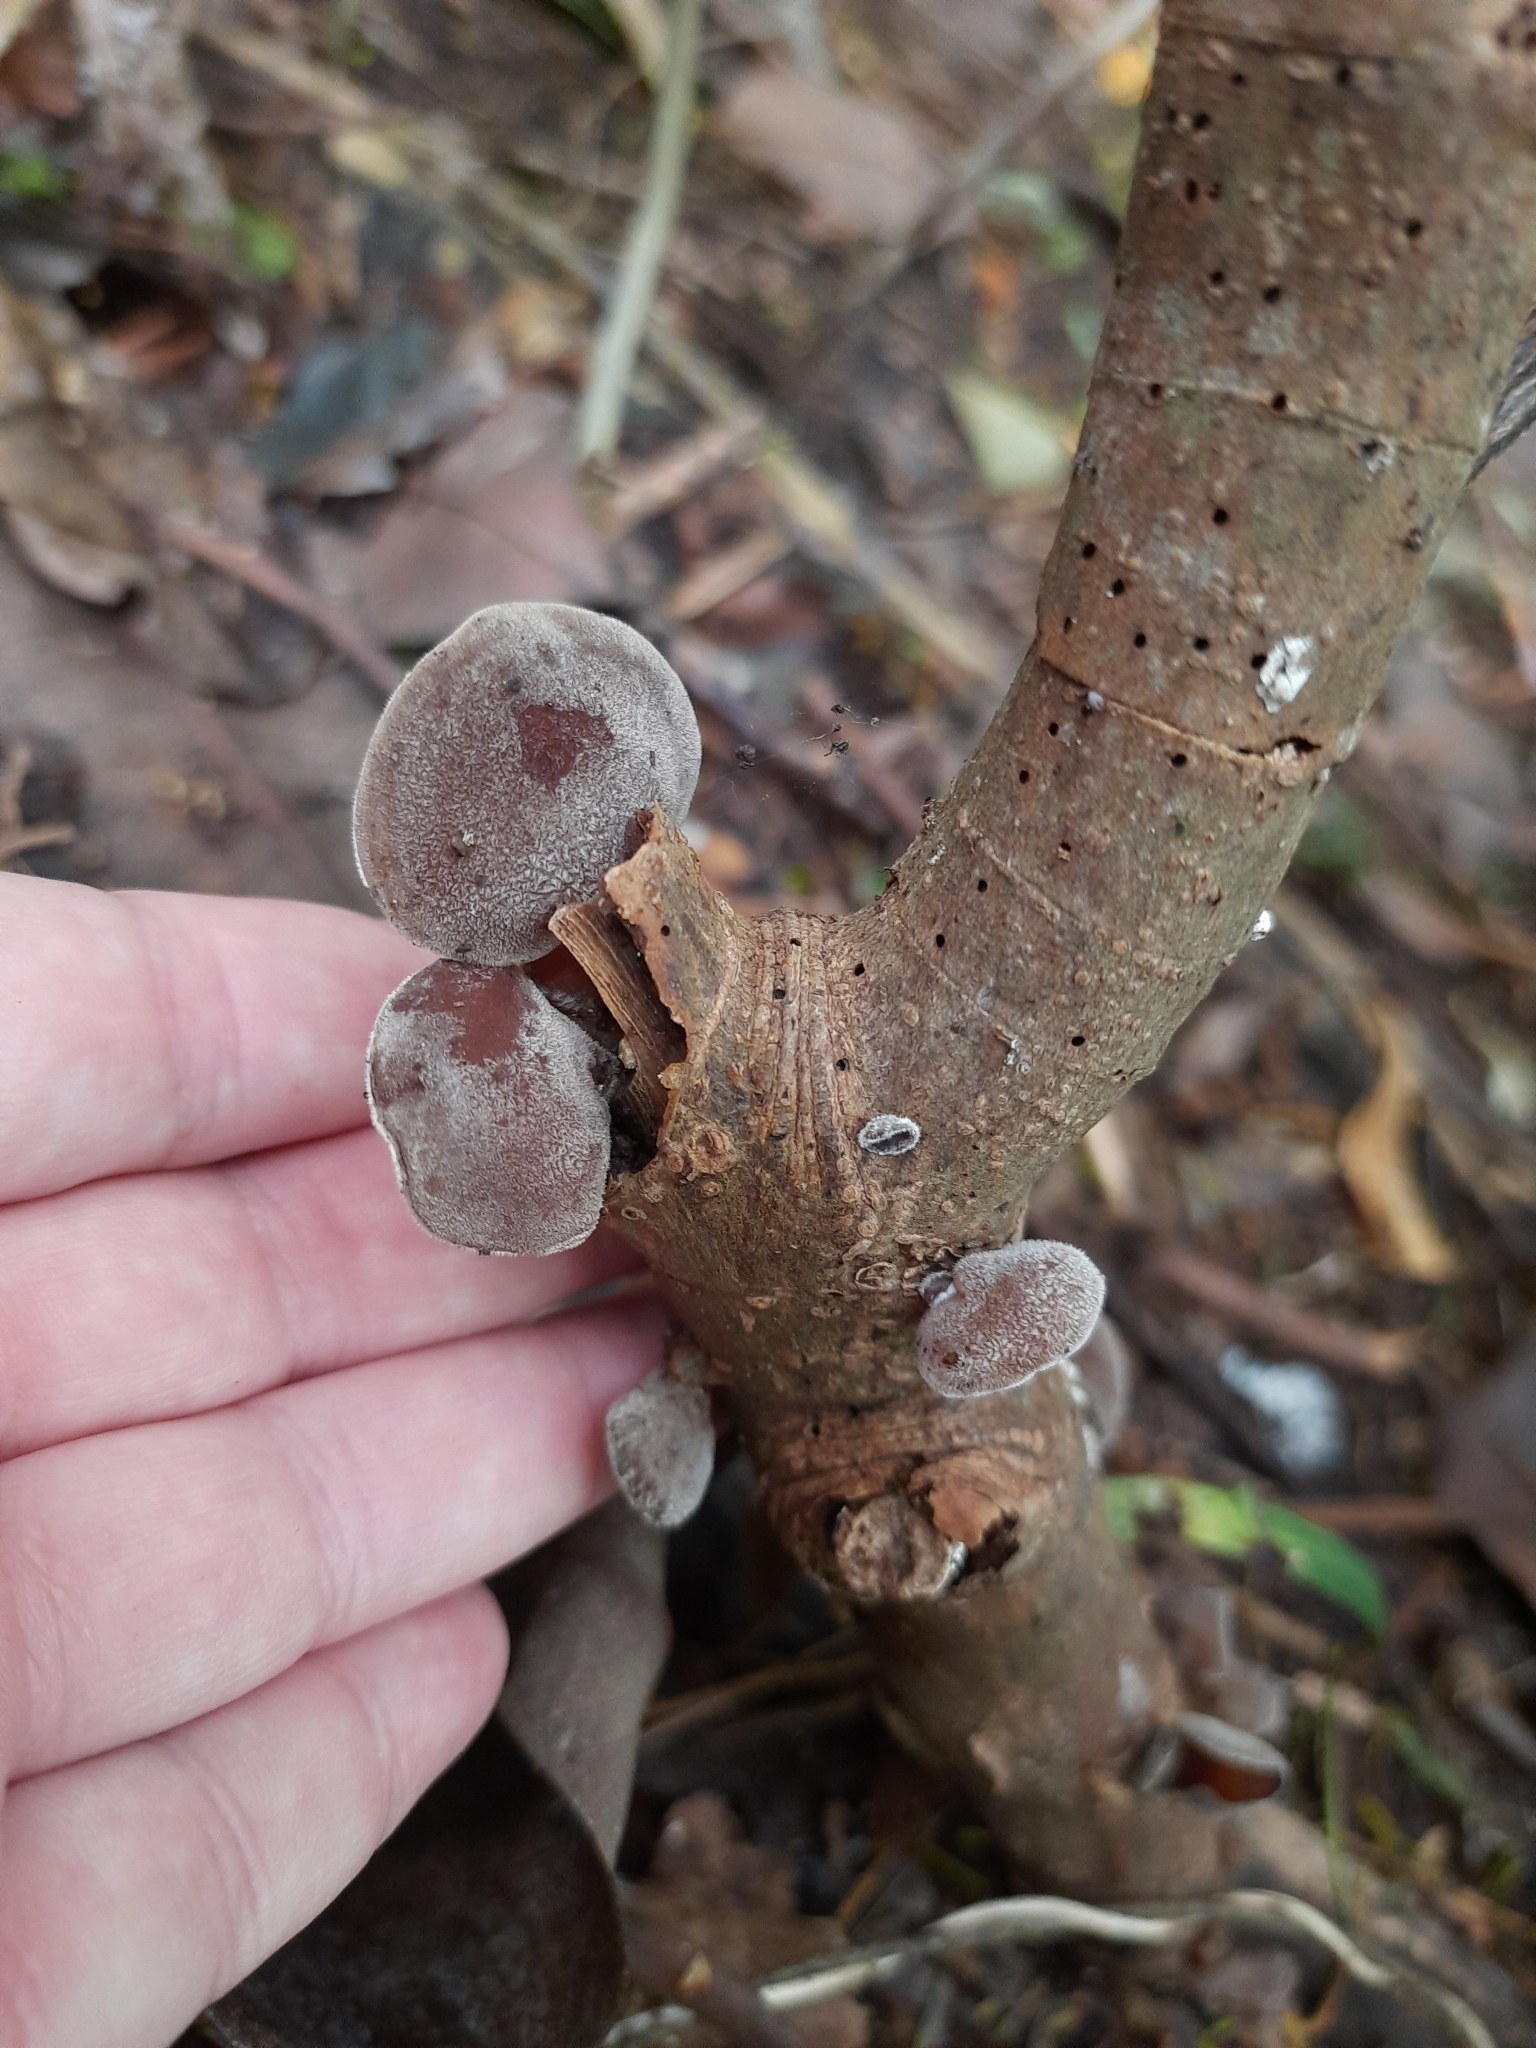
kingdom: Fungi
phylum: Basidiomycota
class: Agaricomycetes
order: Auriculariales
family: Auriculariaceae
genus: Auricularia
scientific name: Auricularia cornea
